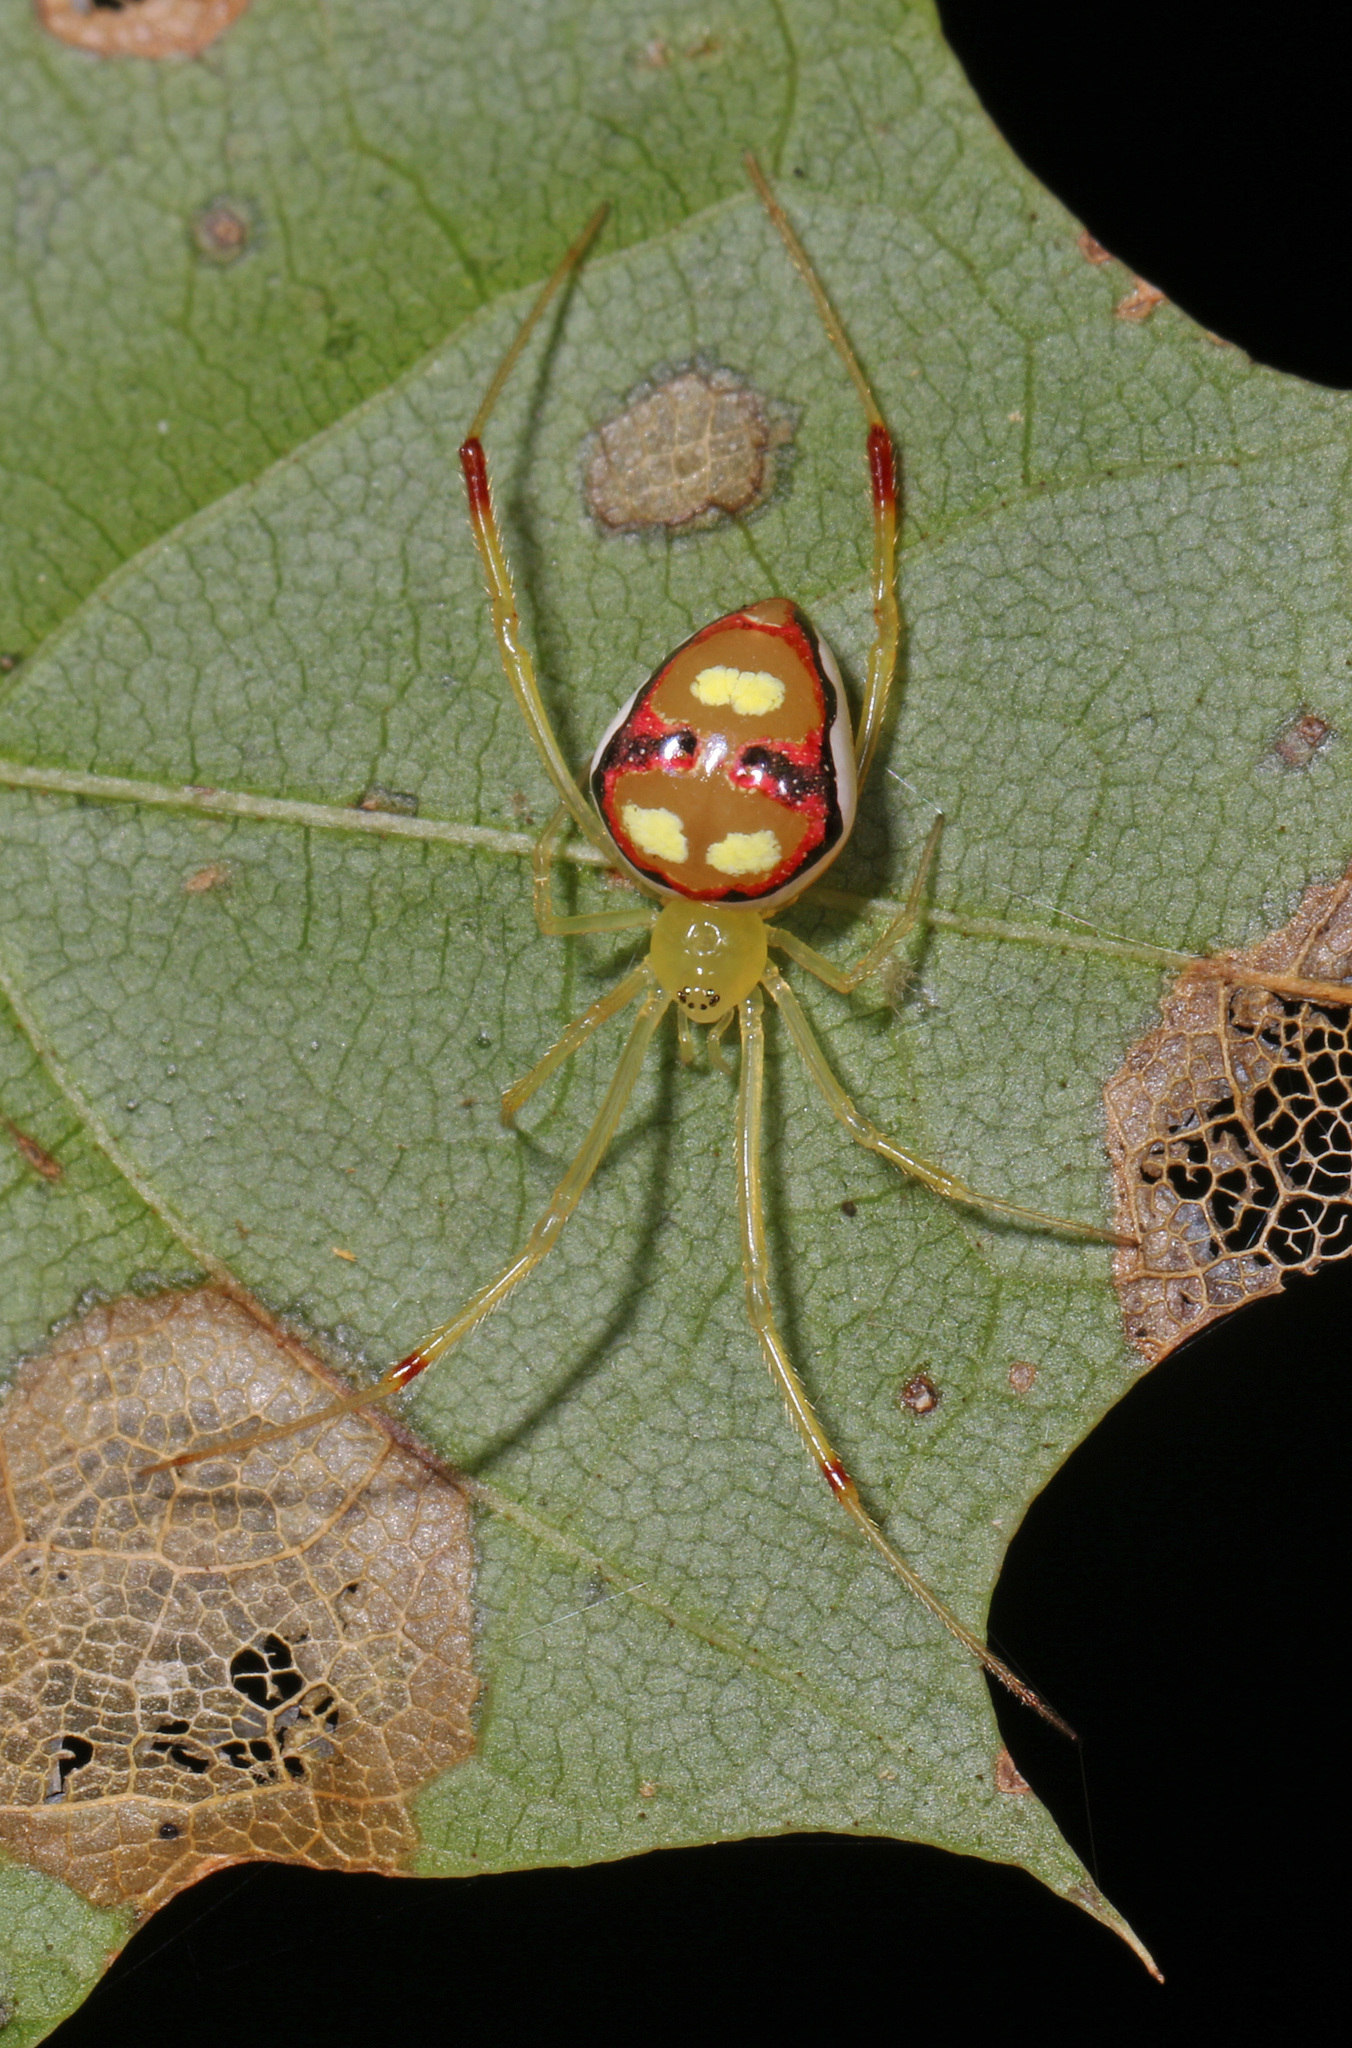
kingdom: Animalia
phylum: Arthropoda
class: Arachnida
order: Araneae
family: Theridiidae
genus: Spintharus
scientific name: Spintharus flavidus
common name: Cobweb spiders
